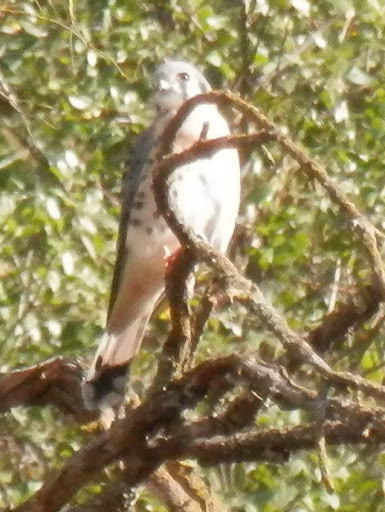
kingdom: Animalia
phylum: Chordata
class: Aves
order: Falconiformes
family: Falconidae
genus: Falco
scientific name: Falco sparverius
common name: American kestrel
